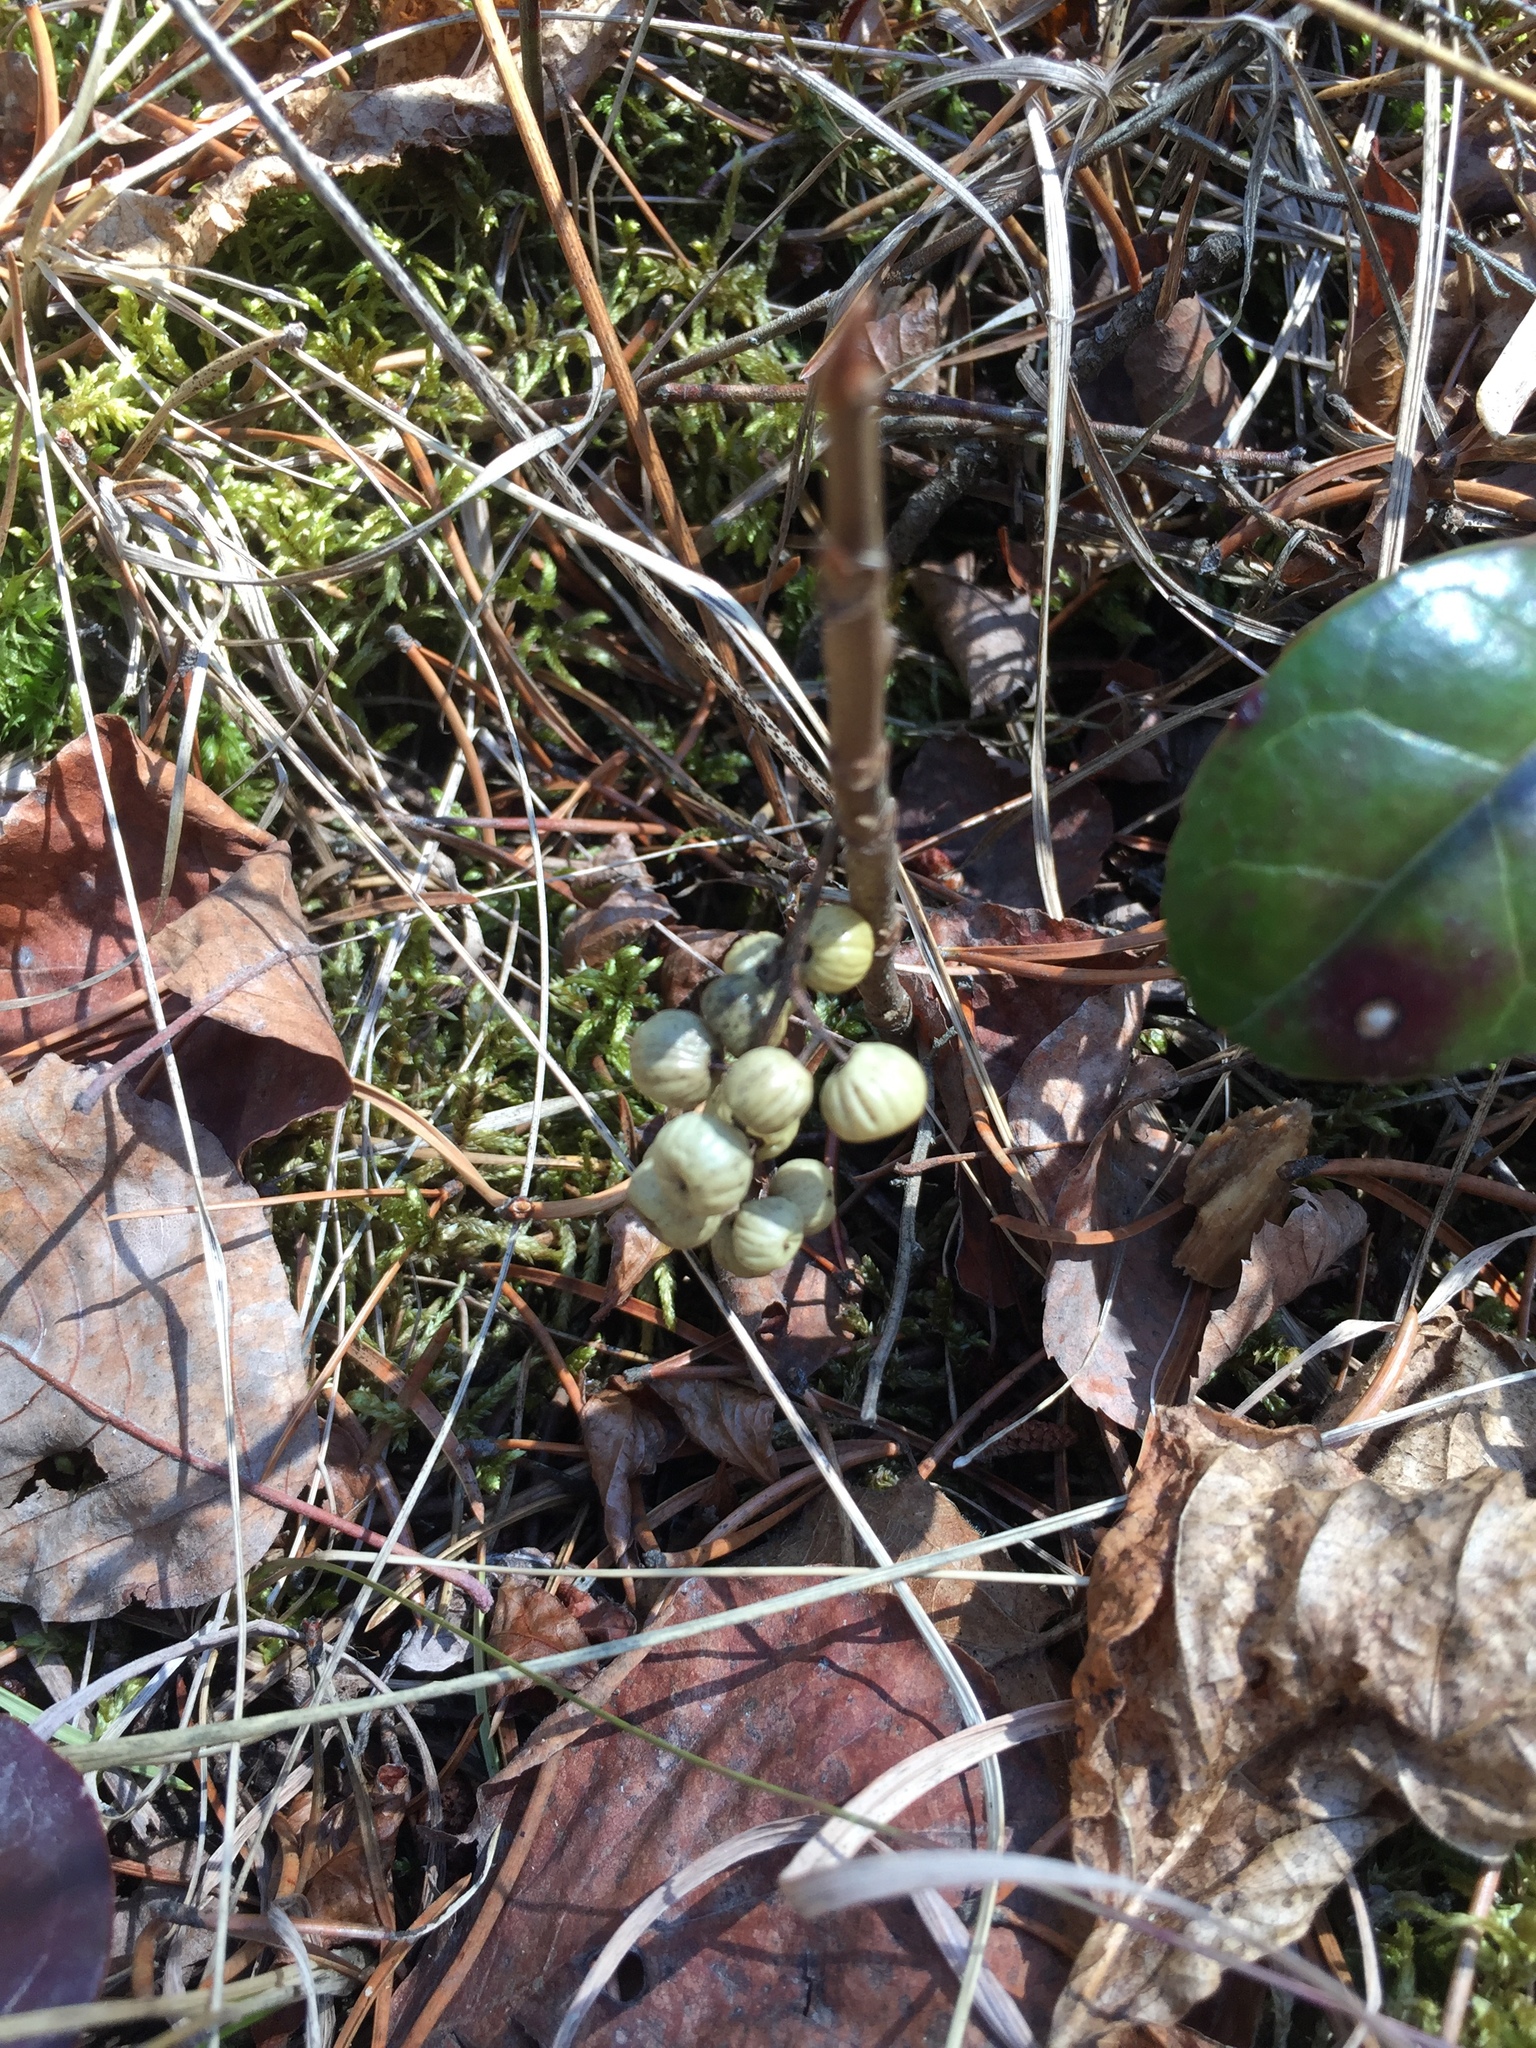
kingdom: Plantae
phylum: Tracheophyta
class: Magnoliopsida
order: Sapindales
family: Anacardiaceae
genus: Toxicodendron
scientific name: Toxicodendron rydbergii
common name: Rydberg's poison-ivy
